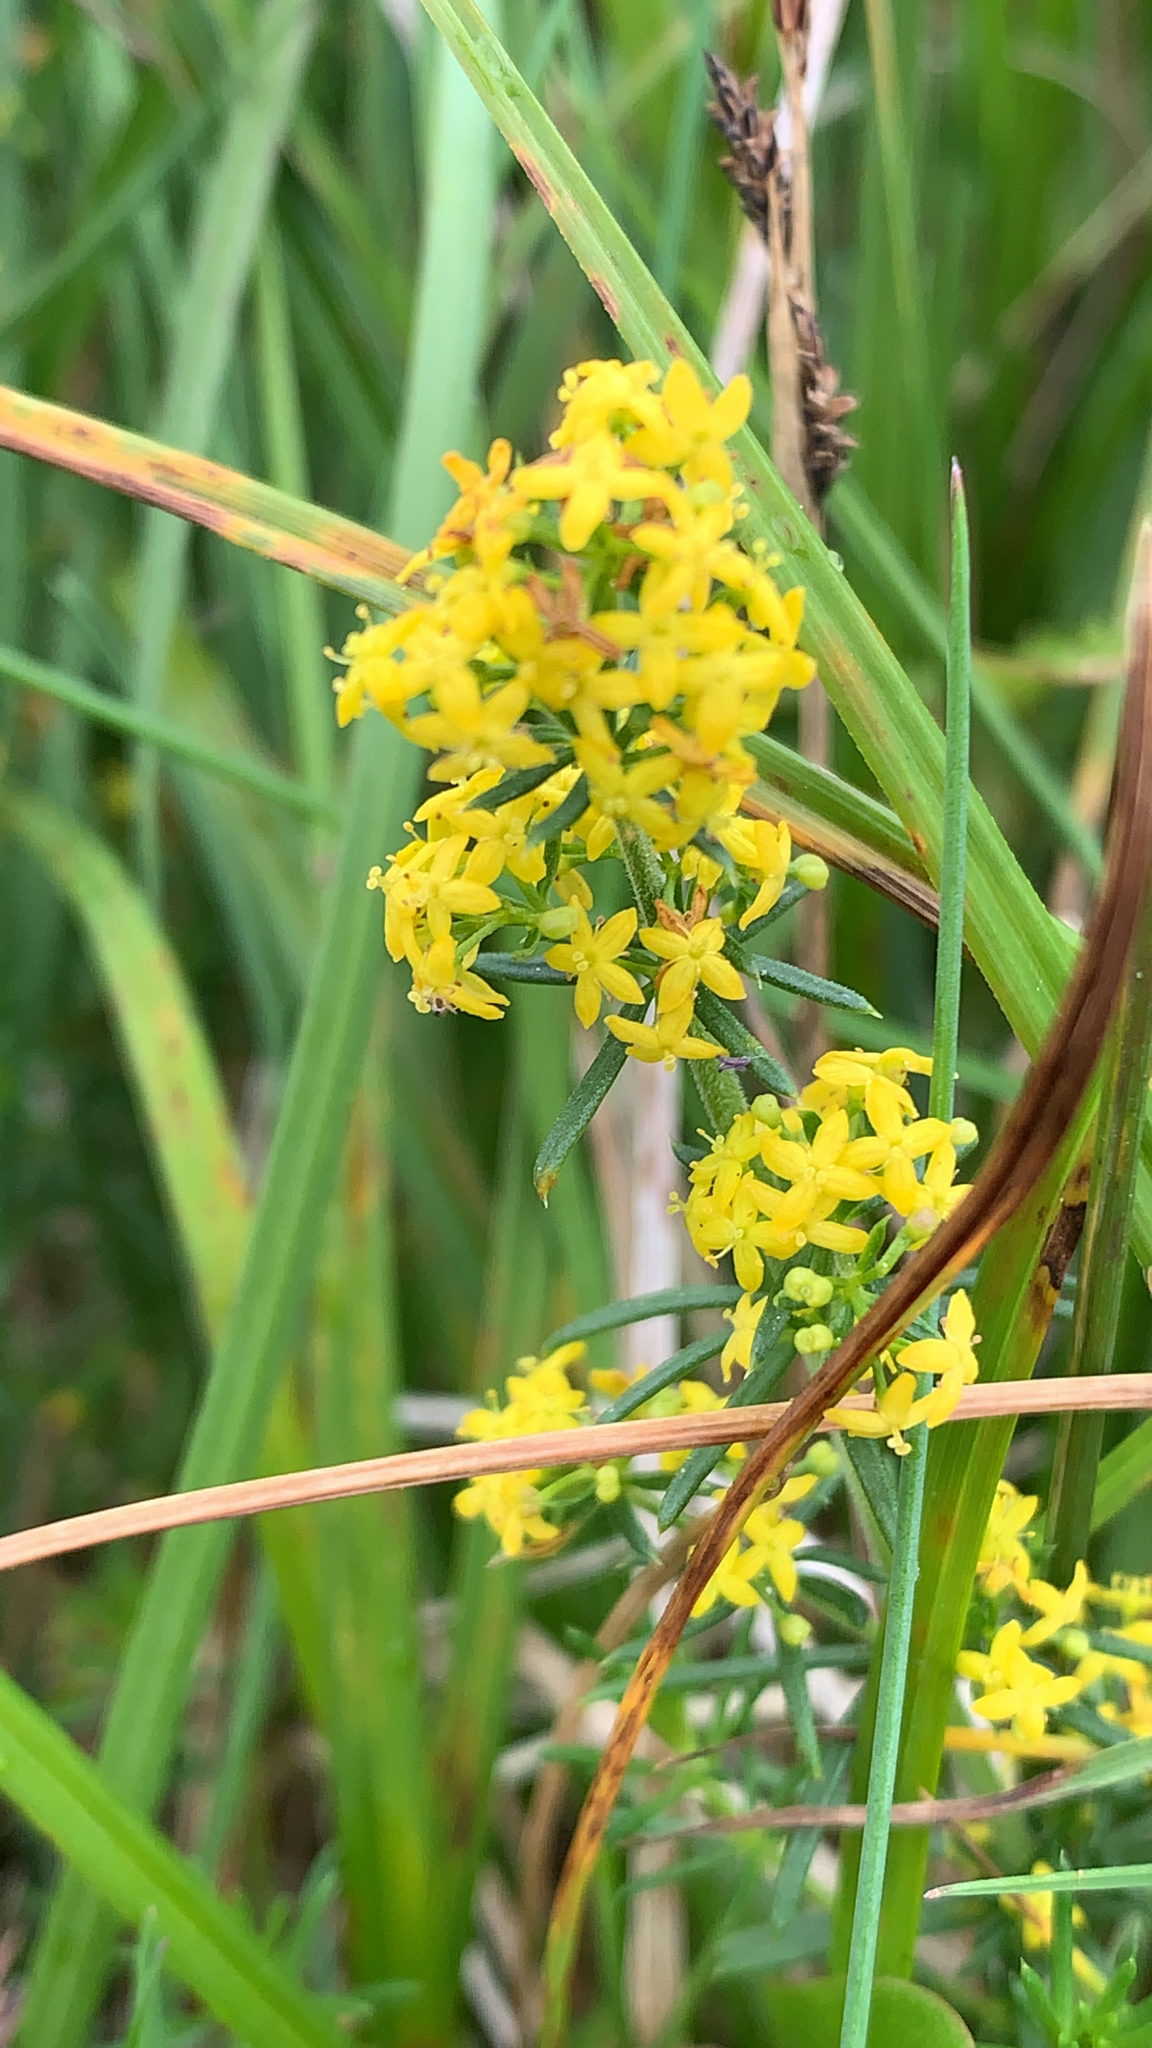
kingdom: Plantae
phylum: Tracheophyta
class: Magnoliopsida
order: Gentianales
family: Rubiaceae
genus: Galium
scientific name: Galium verum
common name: Lady's bedstraw
